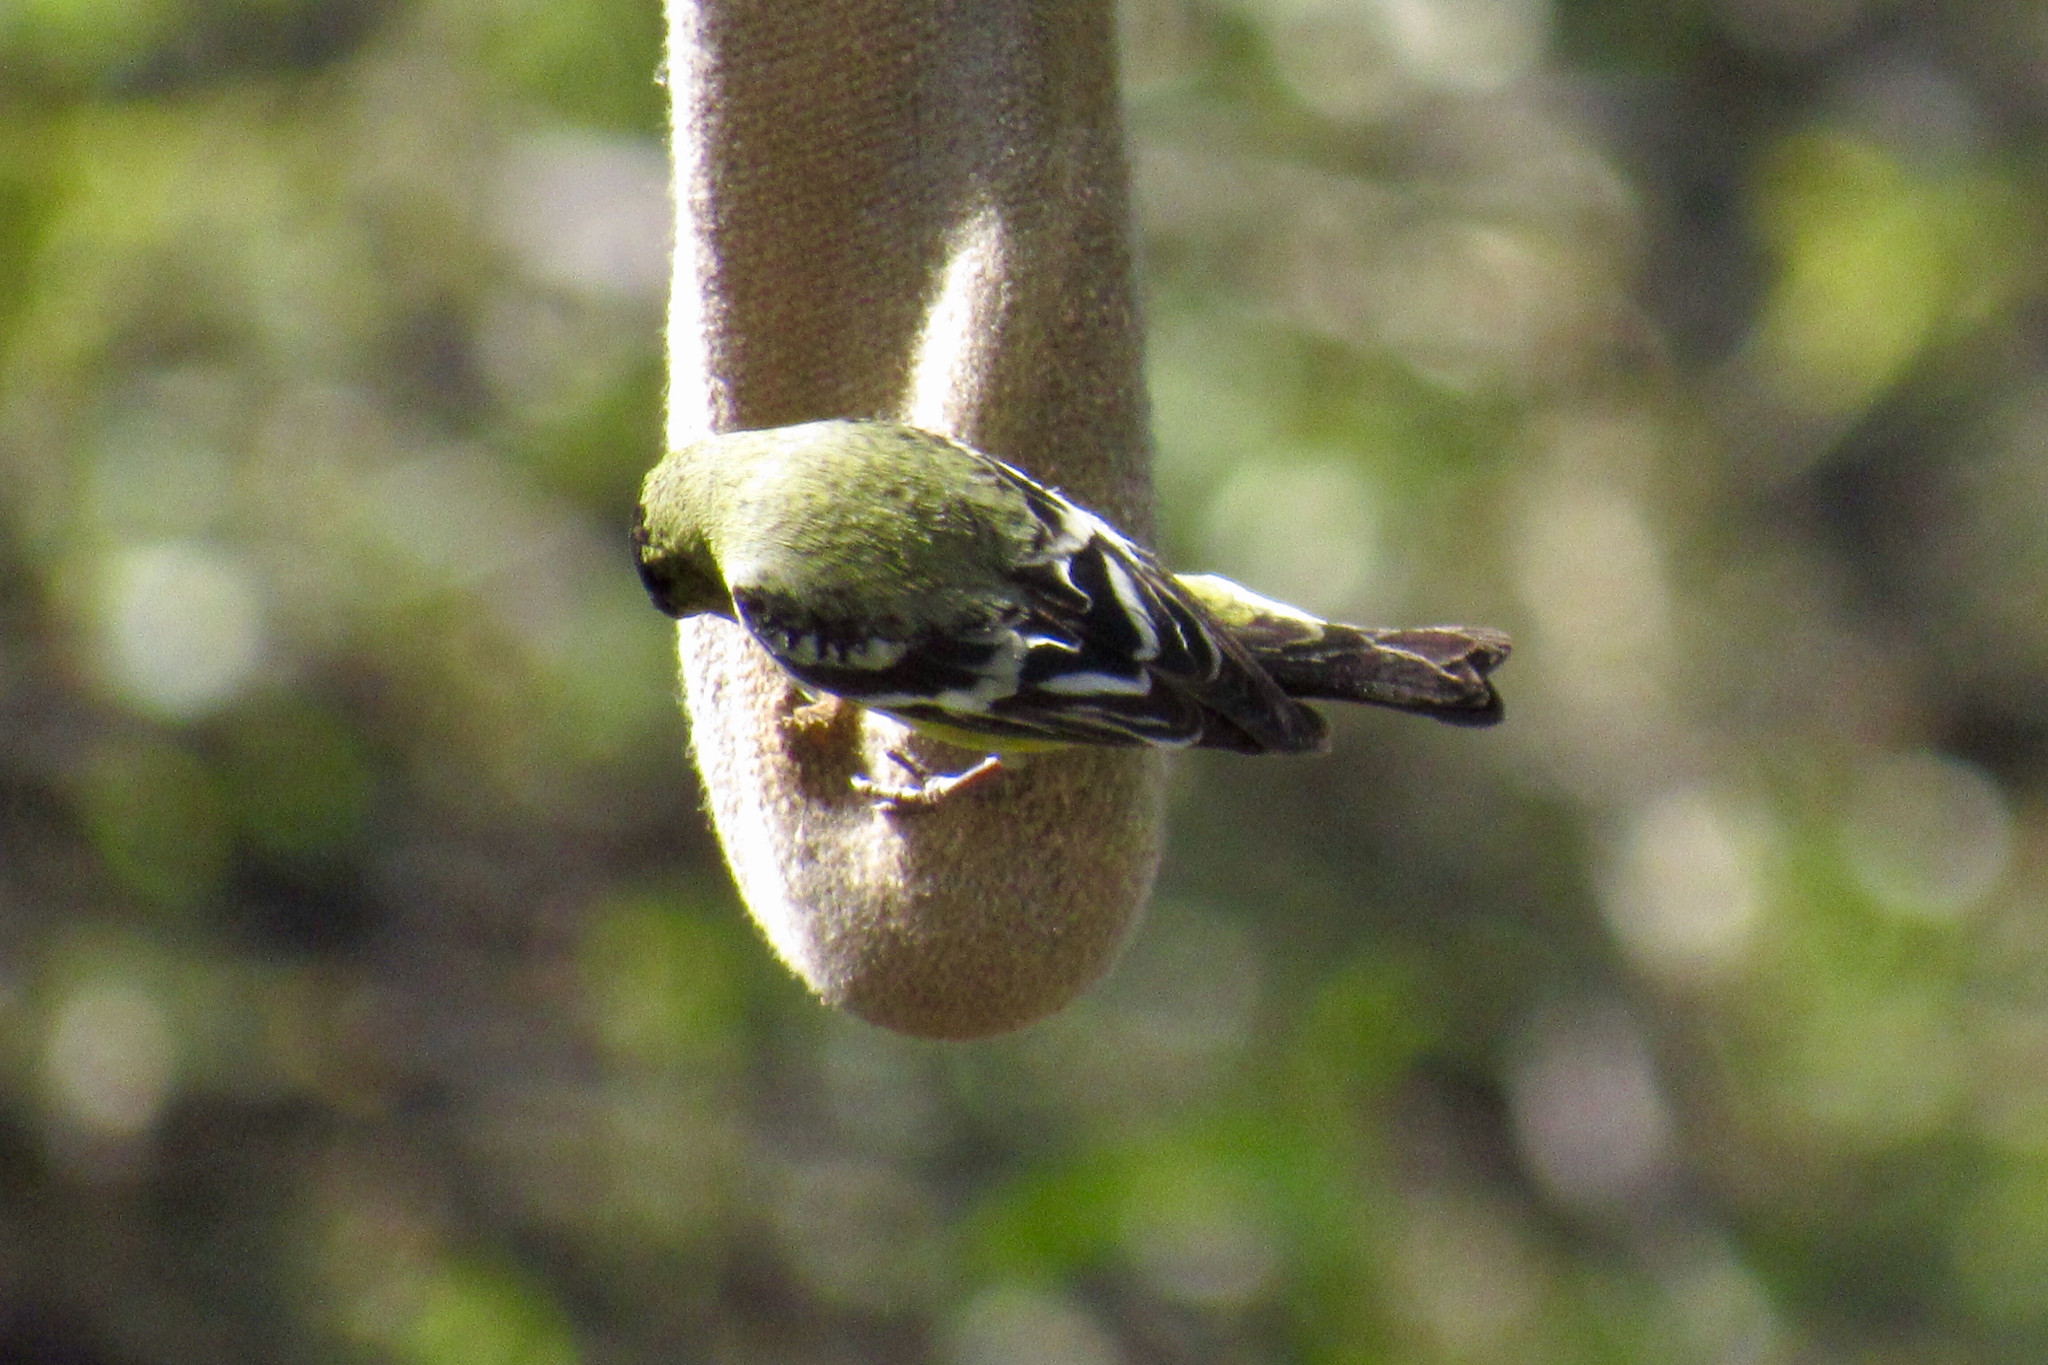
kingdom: Animalia
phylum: Chordata
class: Aves
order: Passeriformes
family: Fringillidae
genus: Spinus
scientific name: Spinus psaltria
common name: Lesser goldfinch
